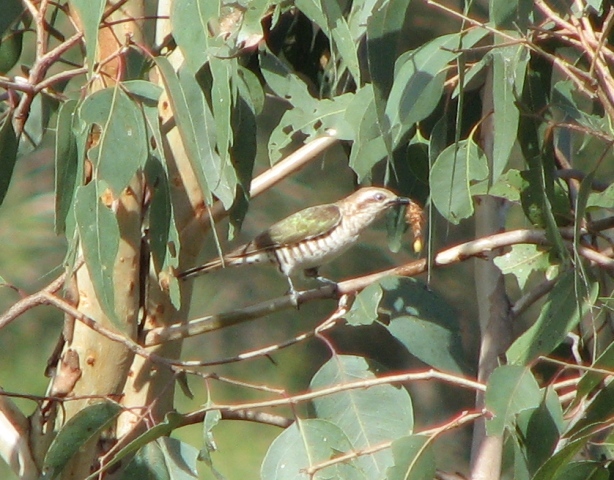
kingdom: Animalia
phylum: Chordata
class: Aves
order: Cuculiformes
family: Cuculidae
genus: Chrysococcyx
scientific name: Chrysococcyx lucidus
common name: Shining bronze cuckoo
